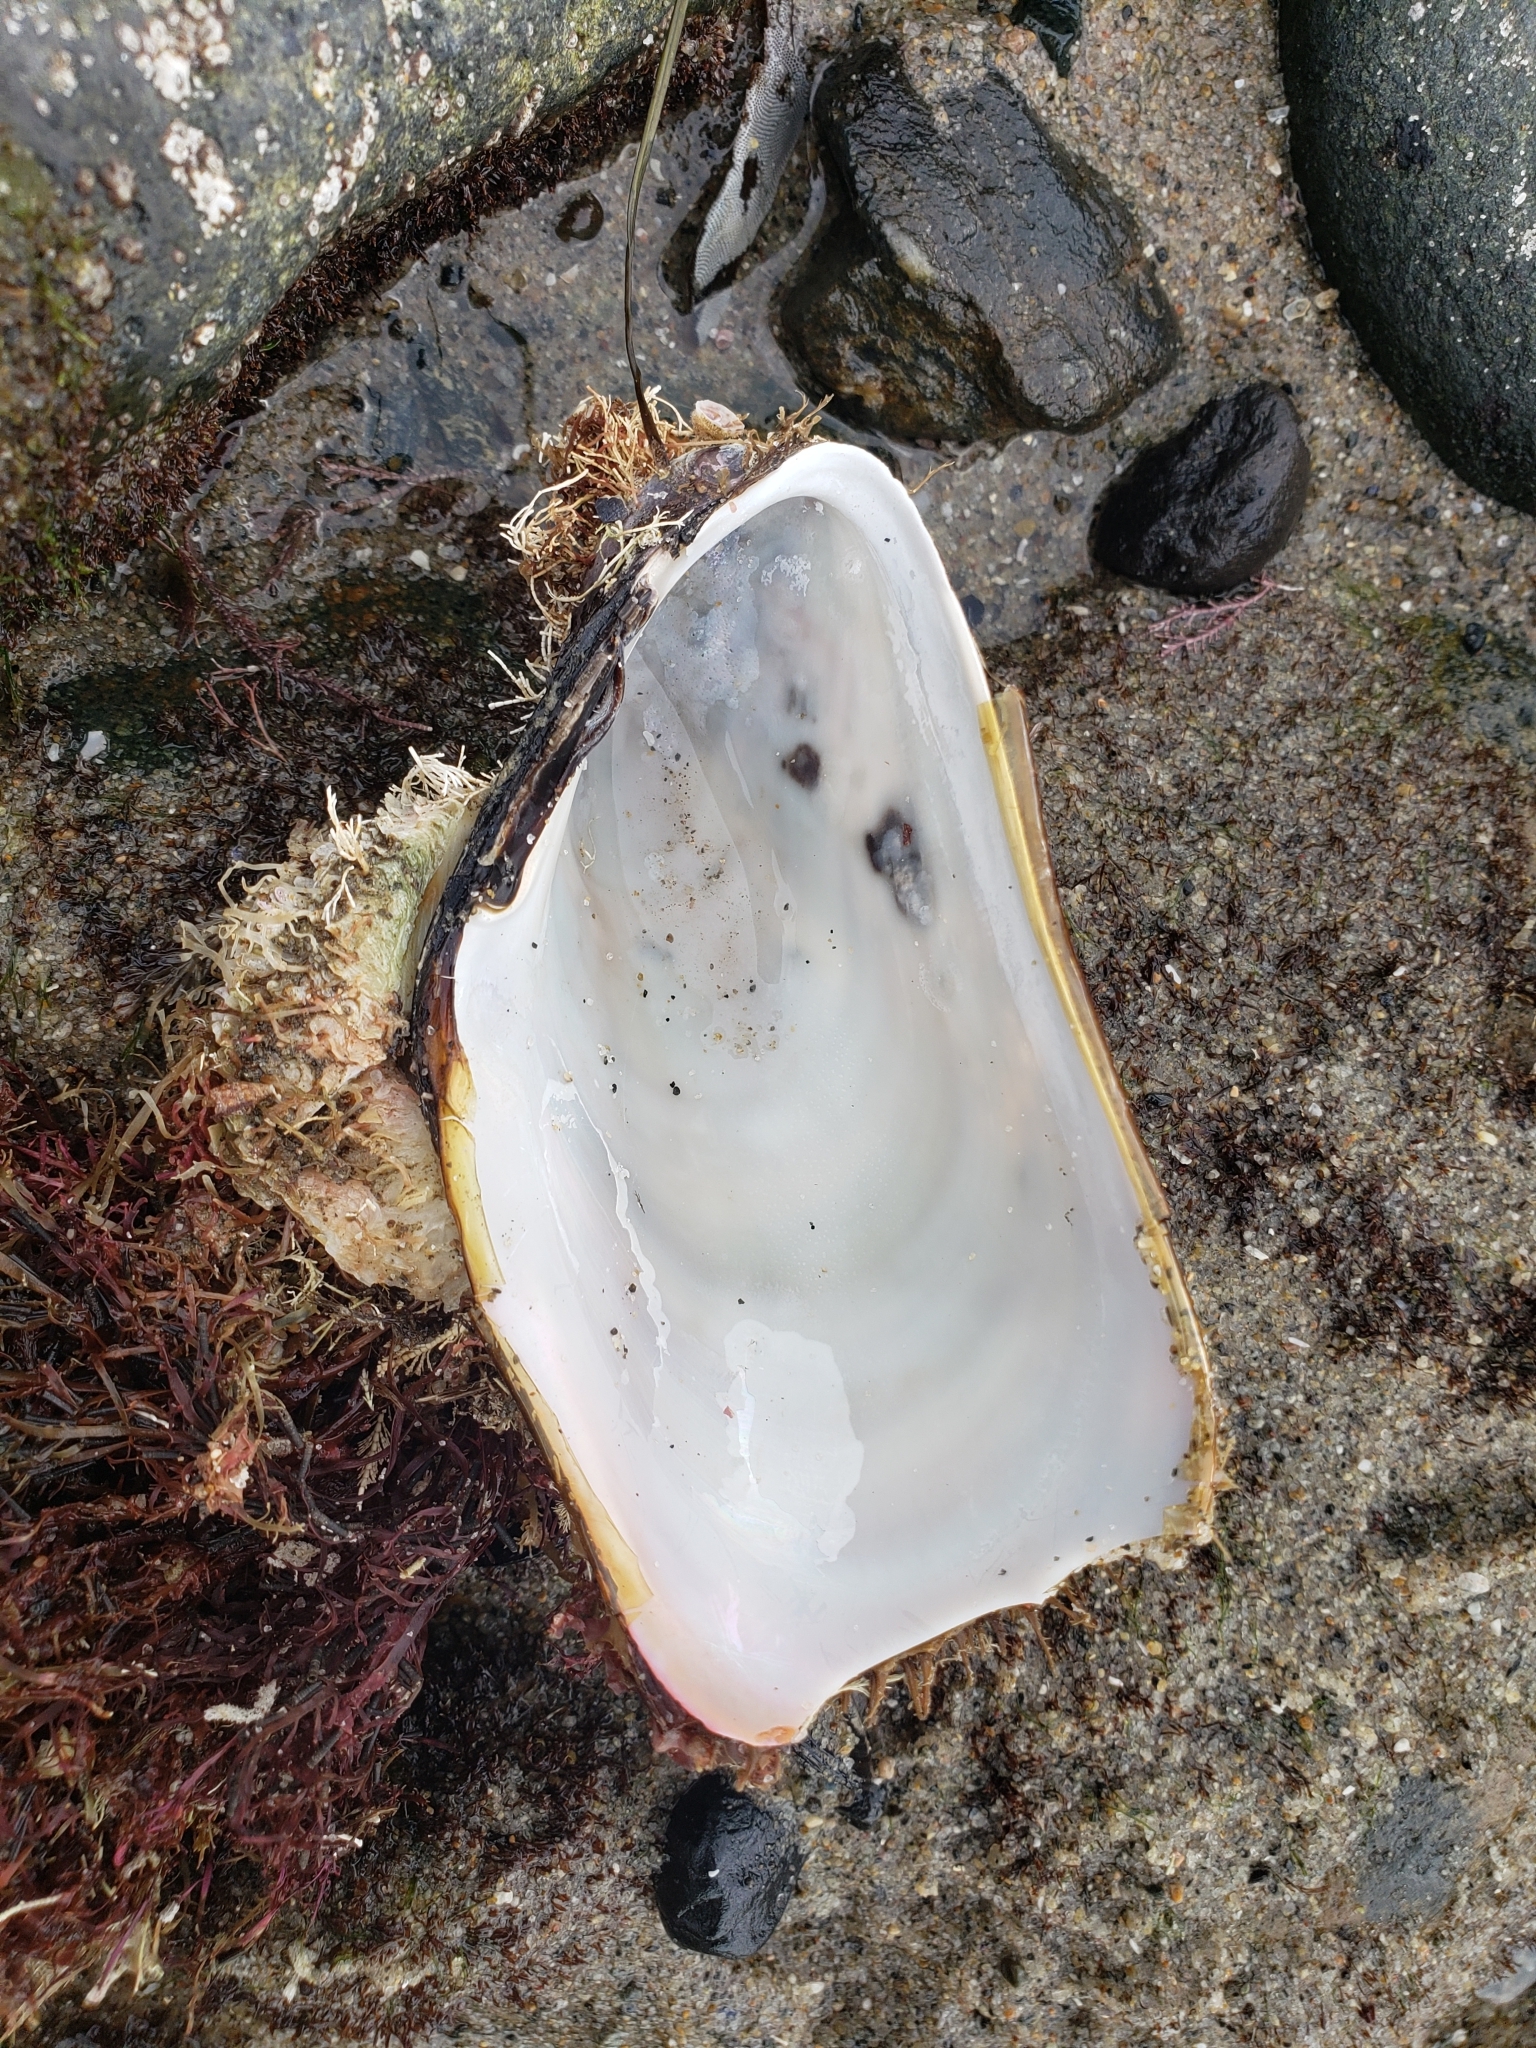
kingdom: Animalia
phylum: Mollusca
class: Bivalvia
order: Mytilida
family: Mytilidae
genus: Modiolus
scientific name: Modiolus capax
